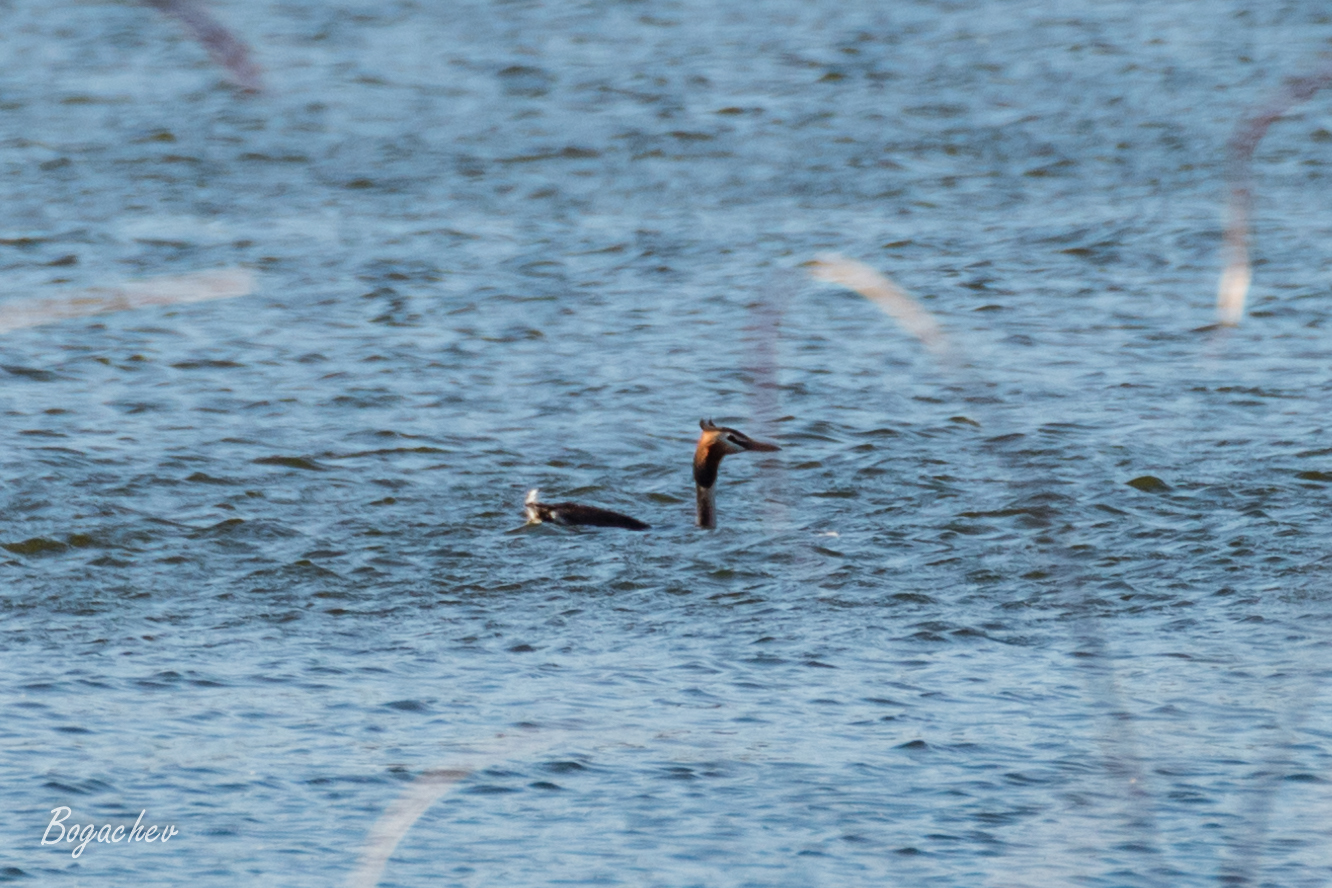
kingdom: Animalia
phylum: Chordata
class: Aves
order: Podicipediformes
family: Podicipedidae
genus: Podiceps
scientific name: Podiceps cristatus
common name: Great crested grebe
